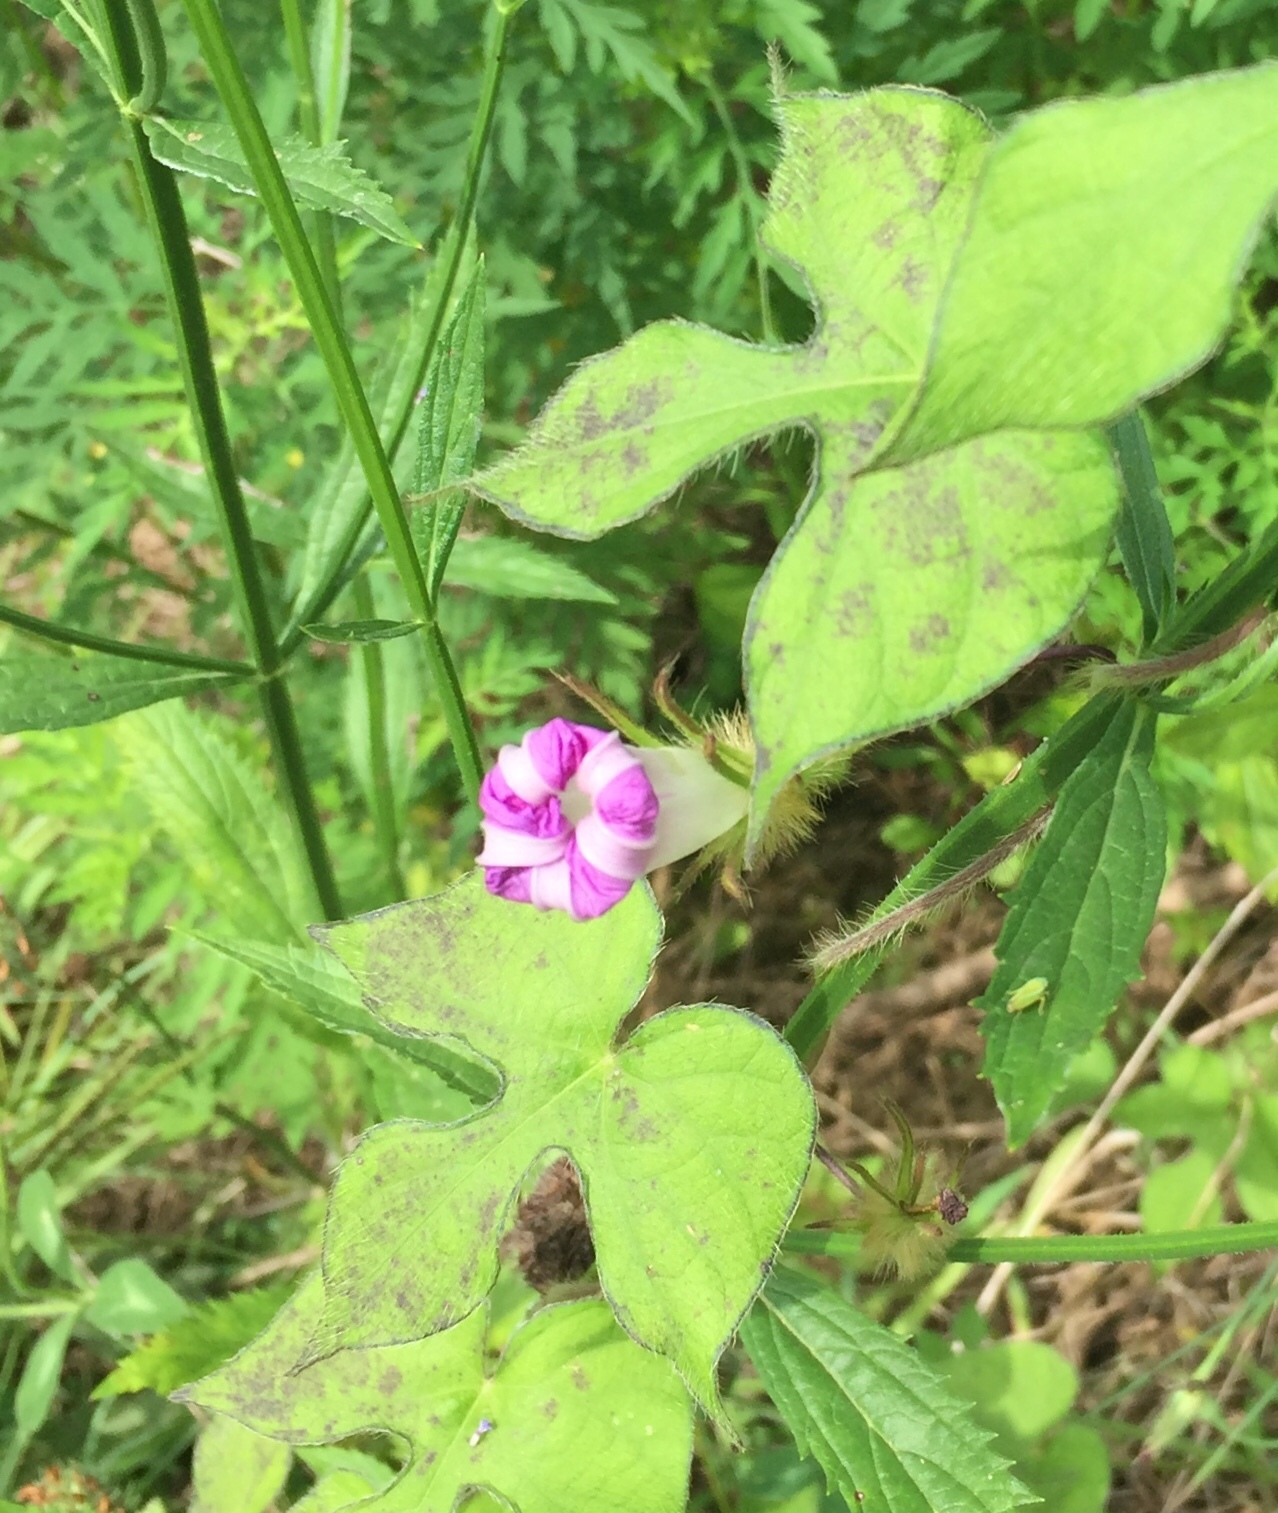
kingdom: Plantae
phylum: Tracheophyta
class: Magnoliopsida
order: Solanales
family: Convolvulaceae
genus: Ipomoea
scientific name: Ipomoea hederacea
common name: Ivy-leaved morning-glory
